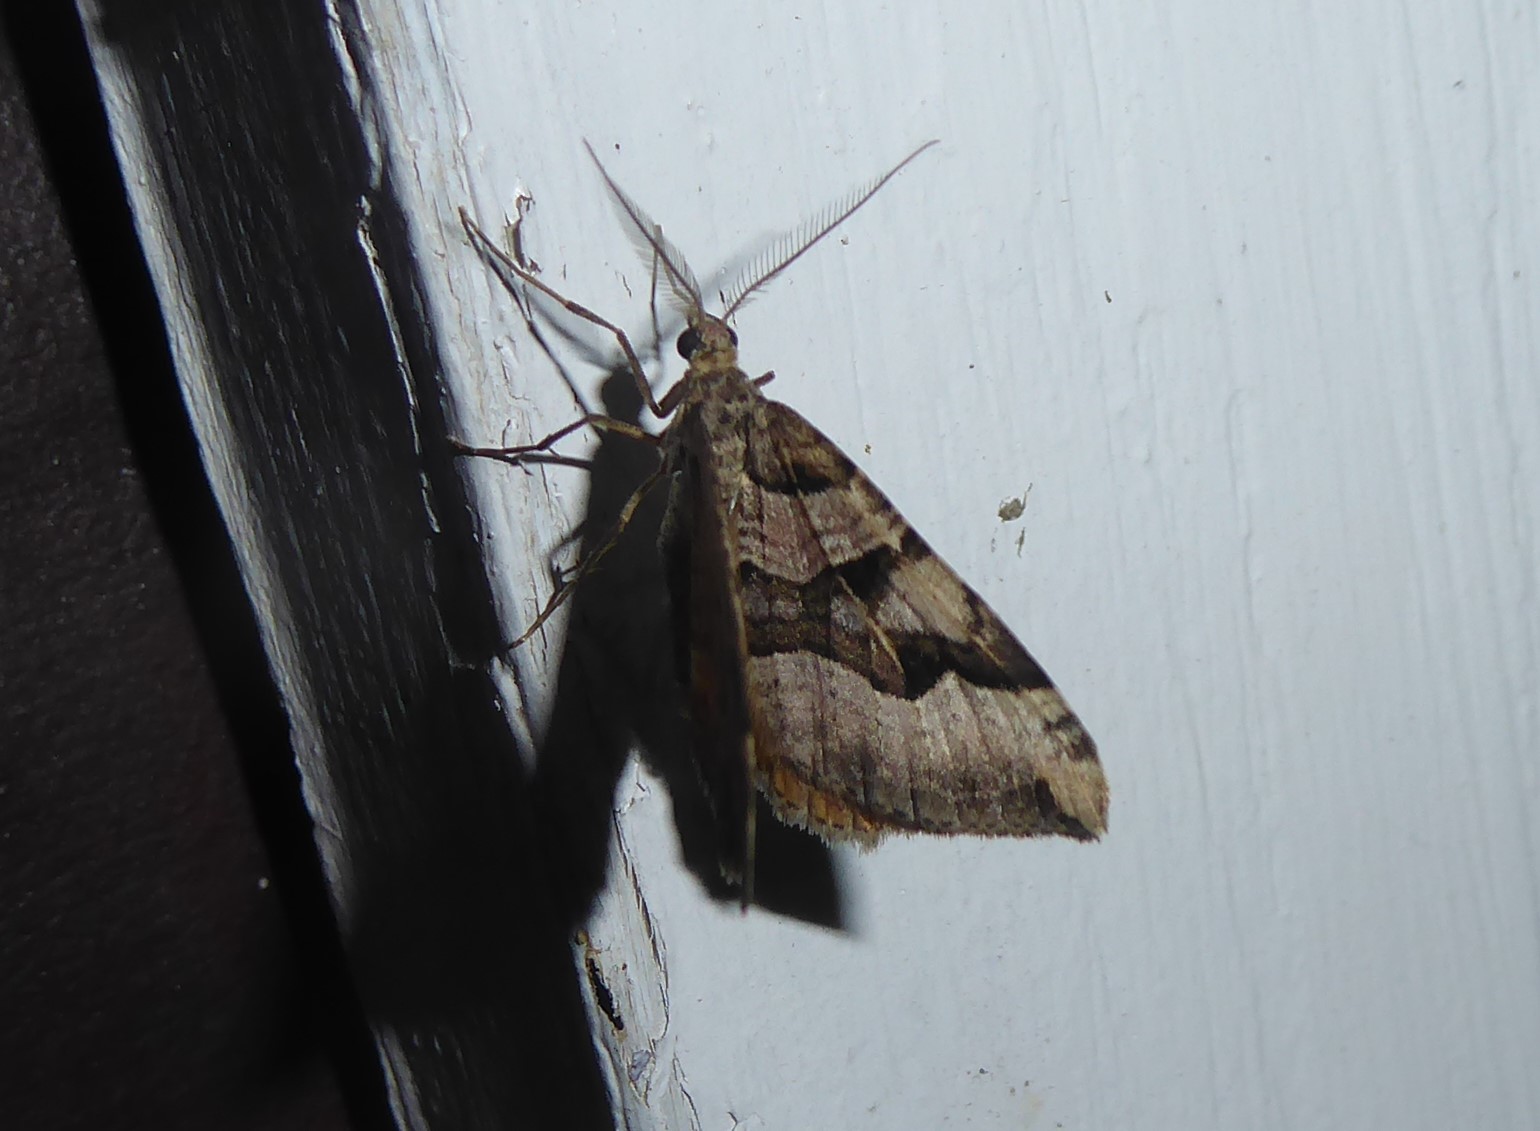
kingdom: Animalia
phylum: Arthropoda
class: Insecta
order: Lepidoptera
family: Geometridae
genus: Xanthorhoe
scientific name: Xanthorhoe semifissata
